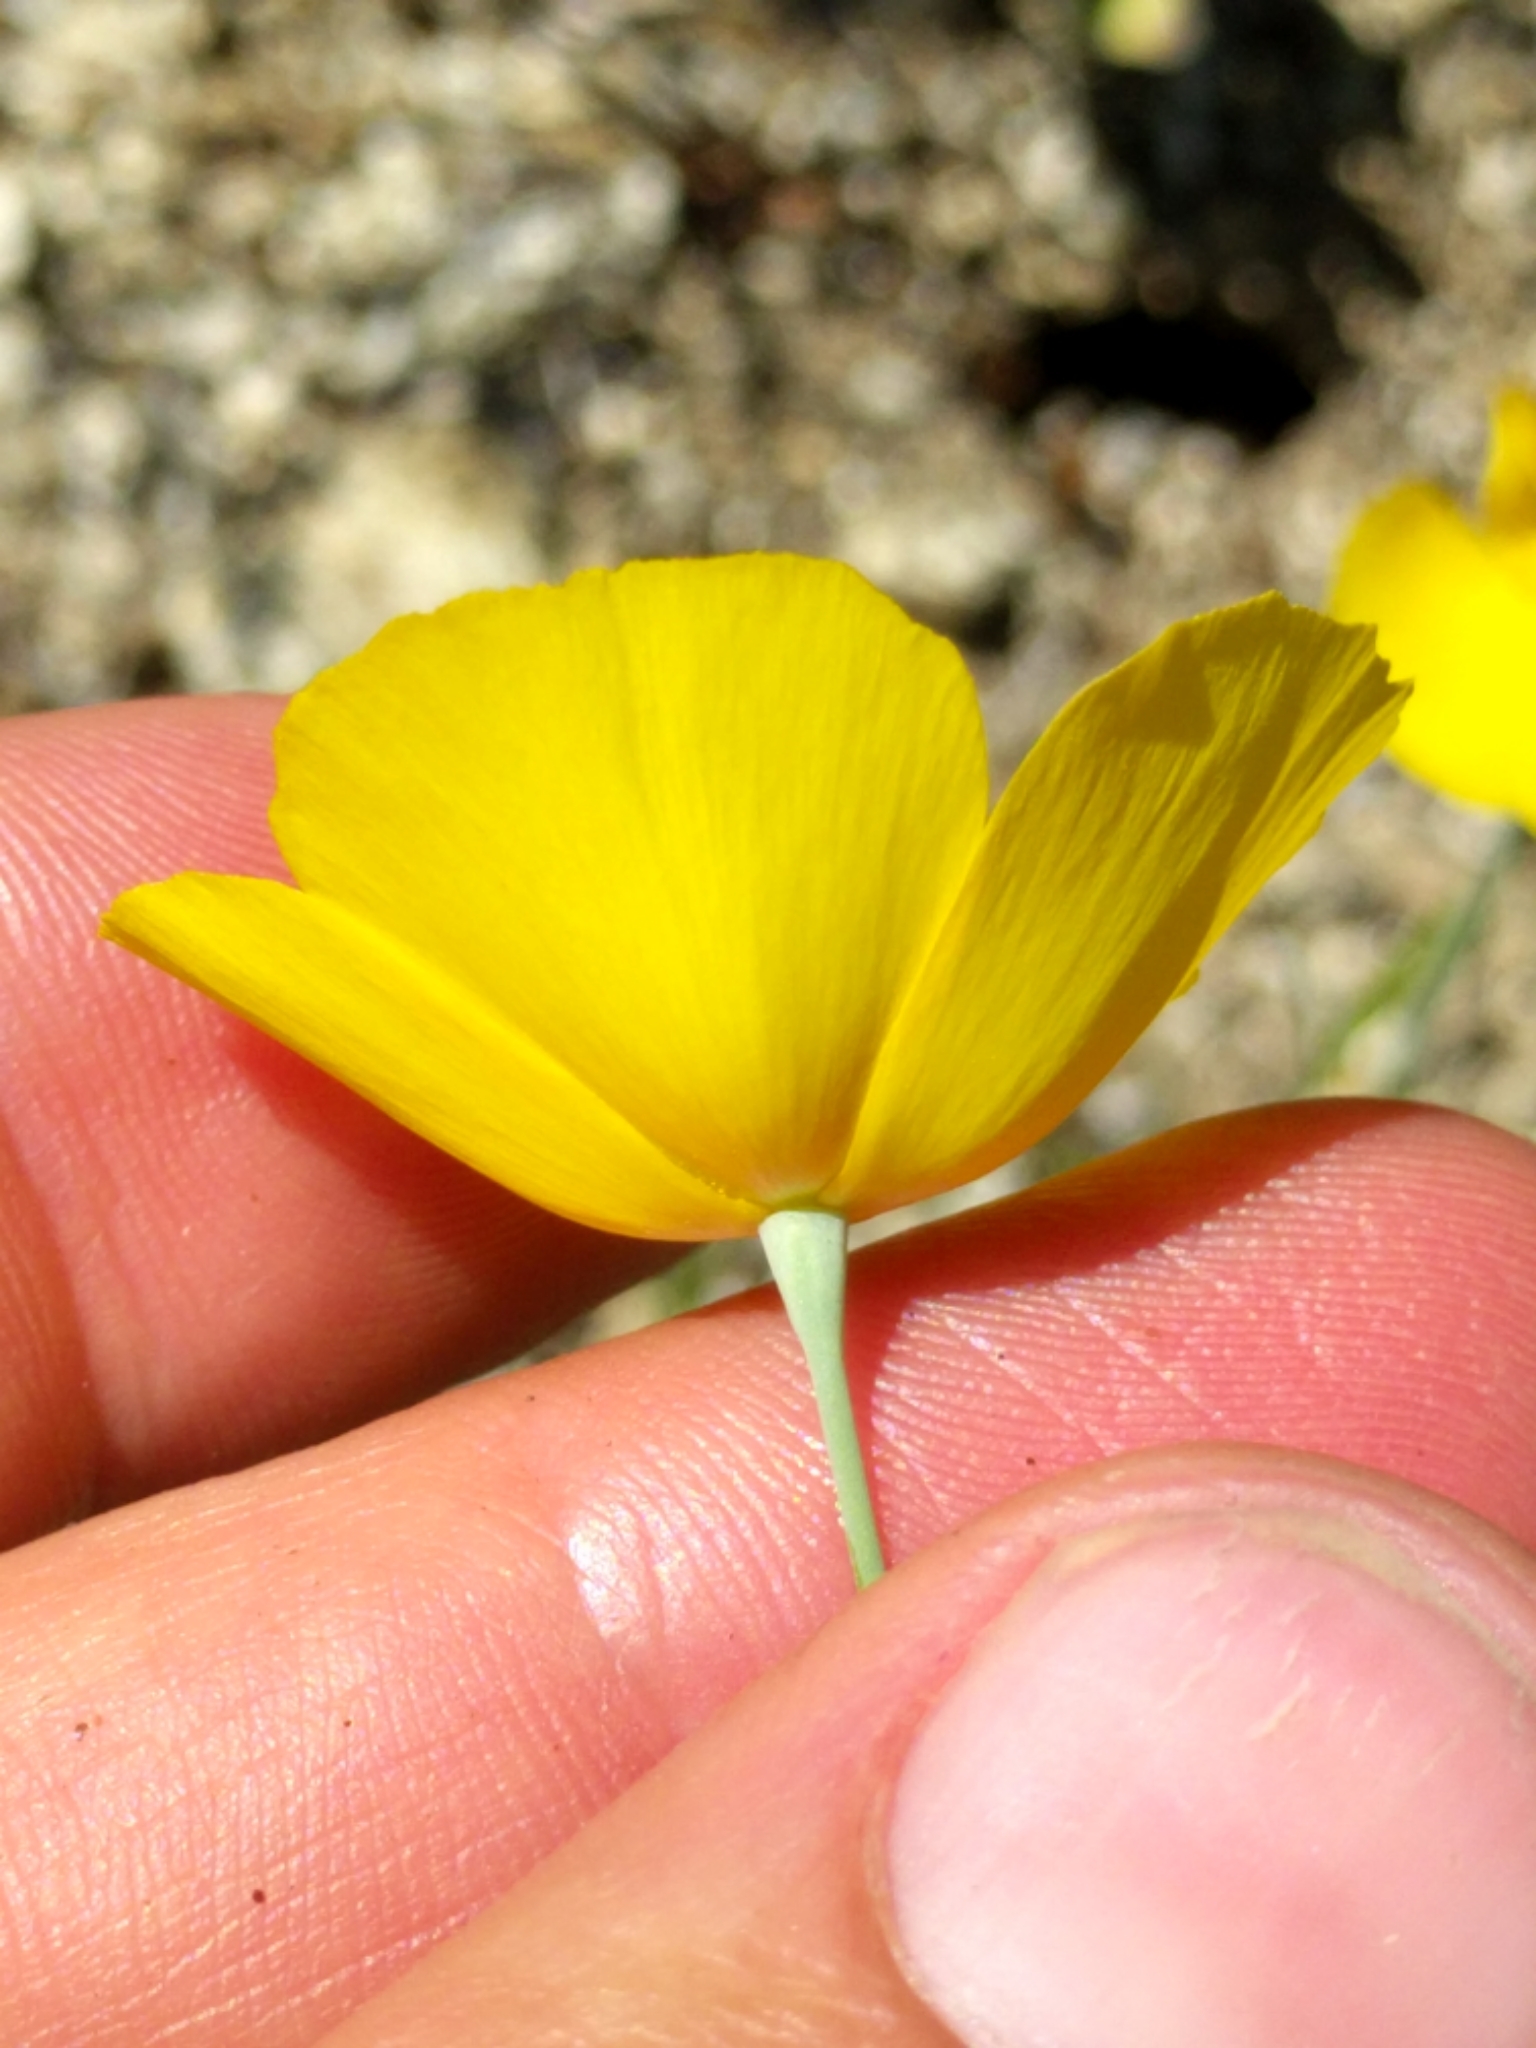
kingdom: Plantae
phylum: Tracheophyta
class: Magnoliopsida
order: Ranunculales
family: Papaveraceae
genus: Eschscholzia
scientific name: Eschscholzia parishii
